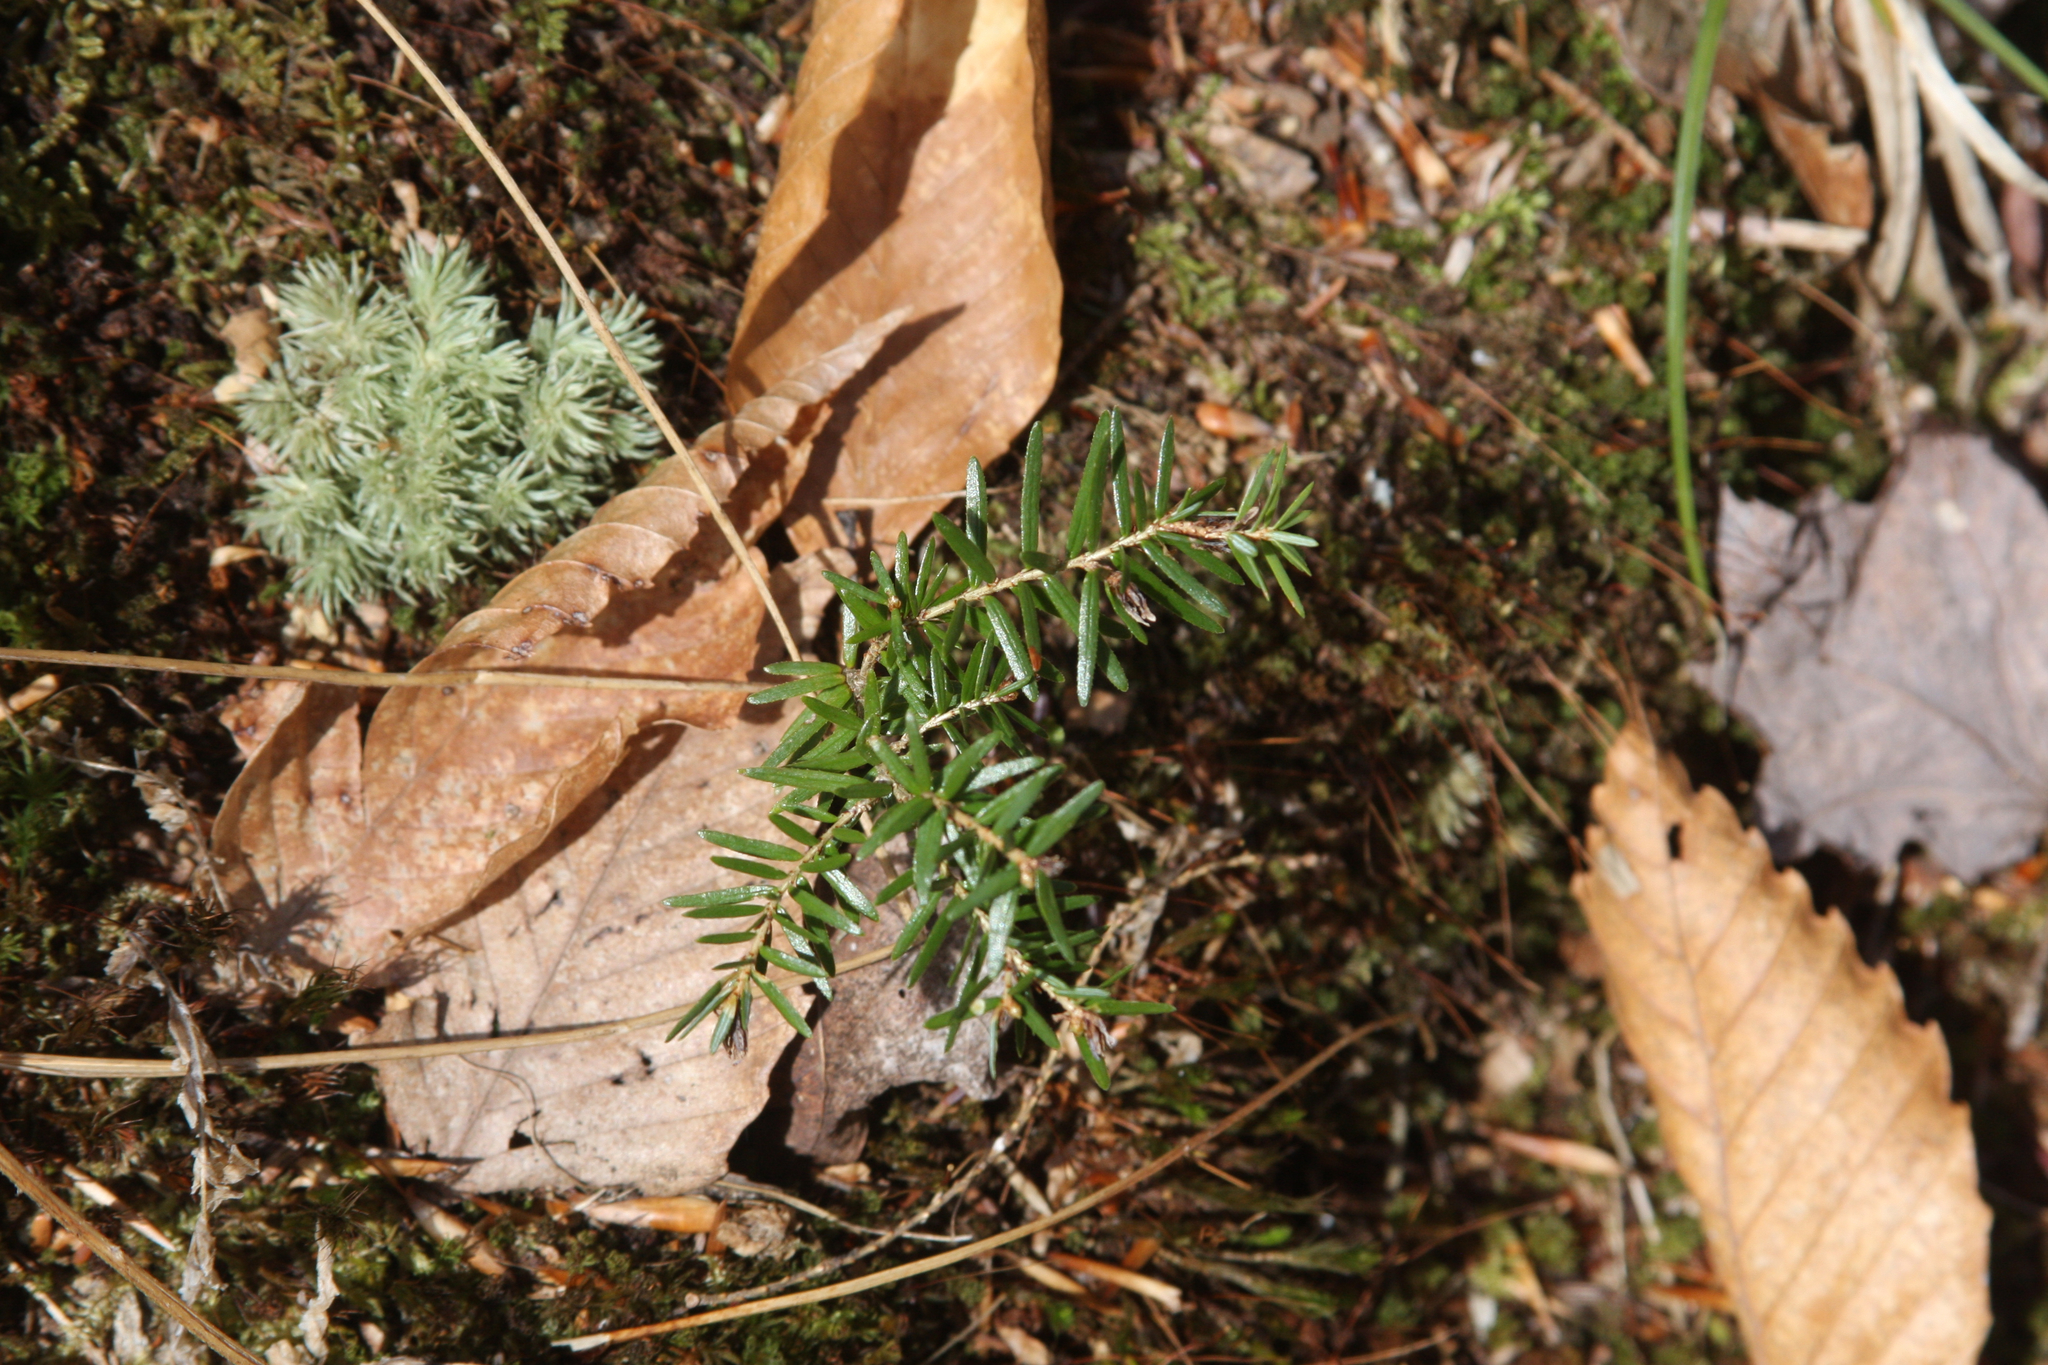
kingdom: Plantae
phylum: Tracheophyta
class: Pinopsida
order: Pinales
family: Pinaceae
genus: Tsuga
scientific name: Tsuga canadensis
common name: Eastern hemlock
